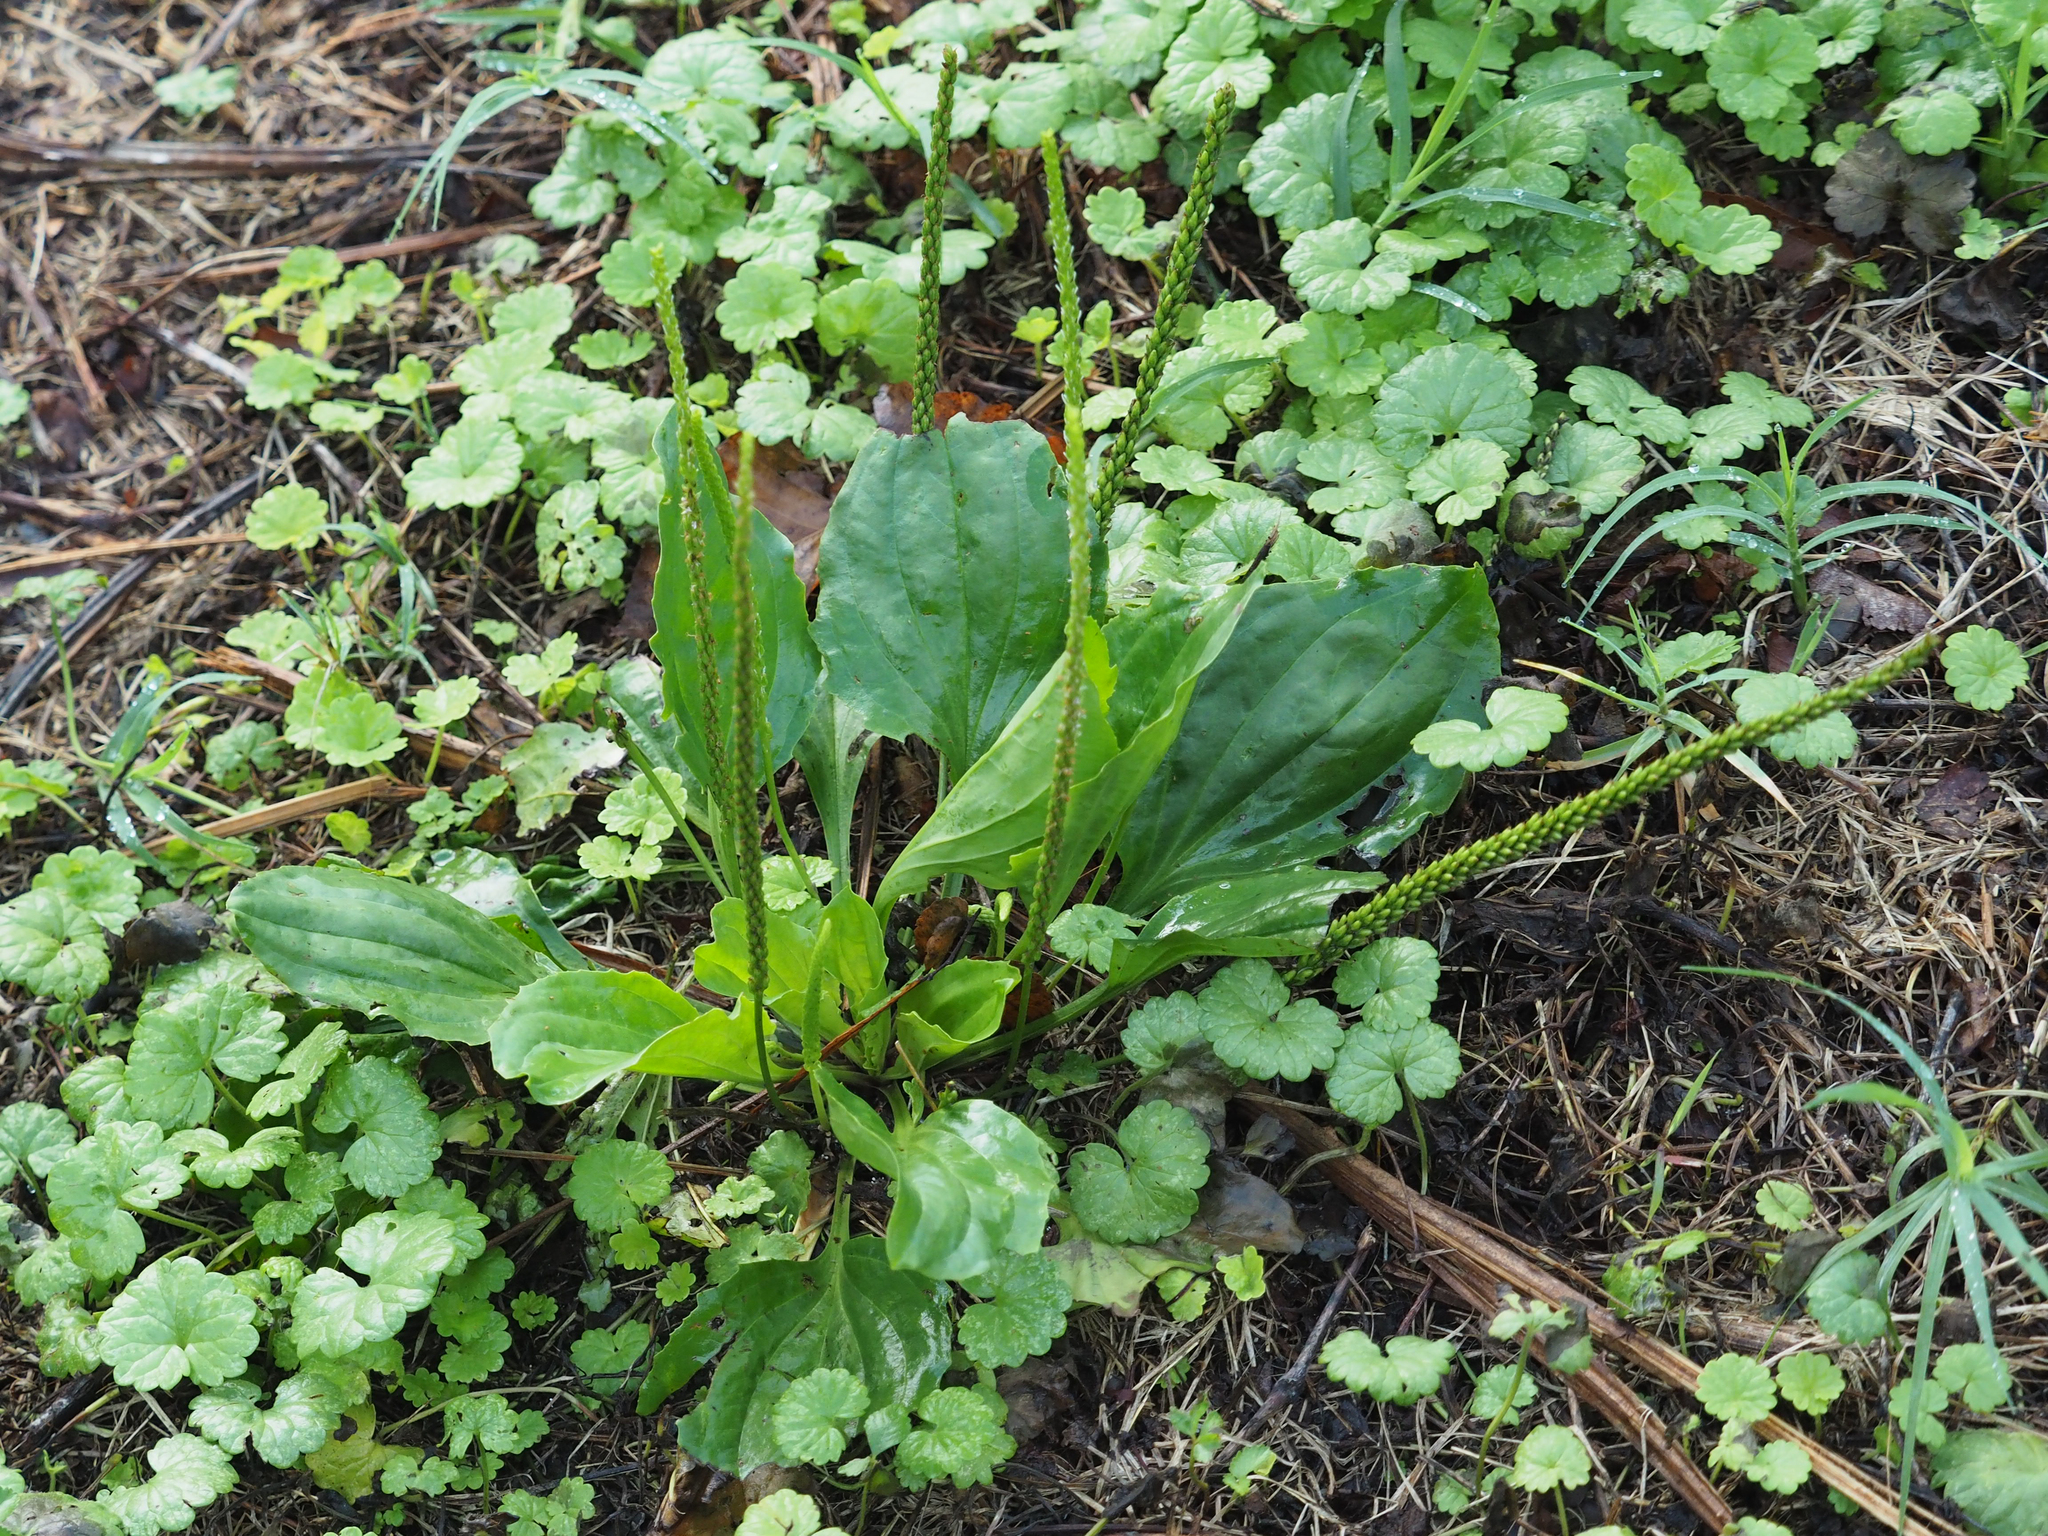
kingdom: Plantae
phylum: Tracheophyta
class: Magnoliopsida
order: Lamiales
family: Plantaginaceae
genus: Plantago
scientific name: Plantago rugelii
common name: American plantain
